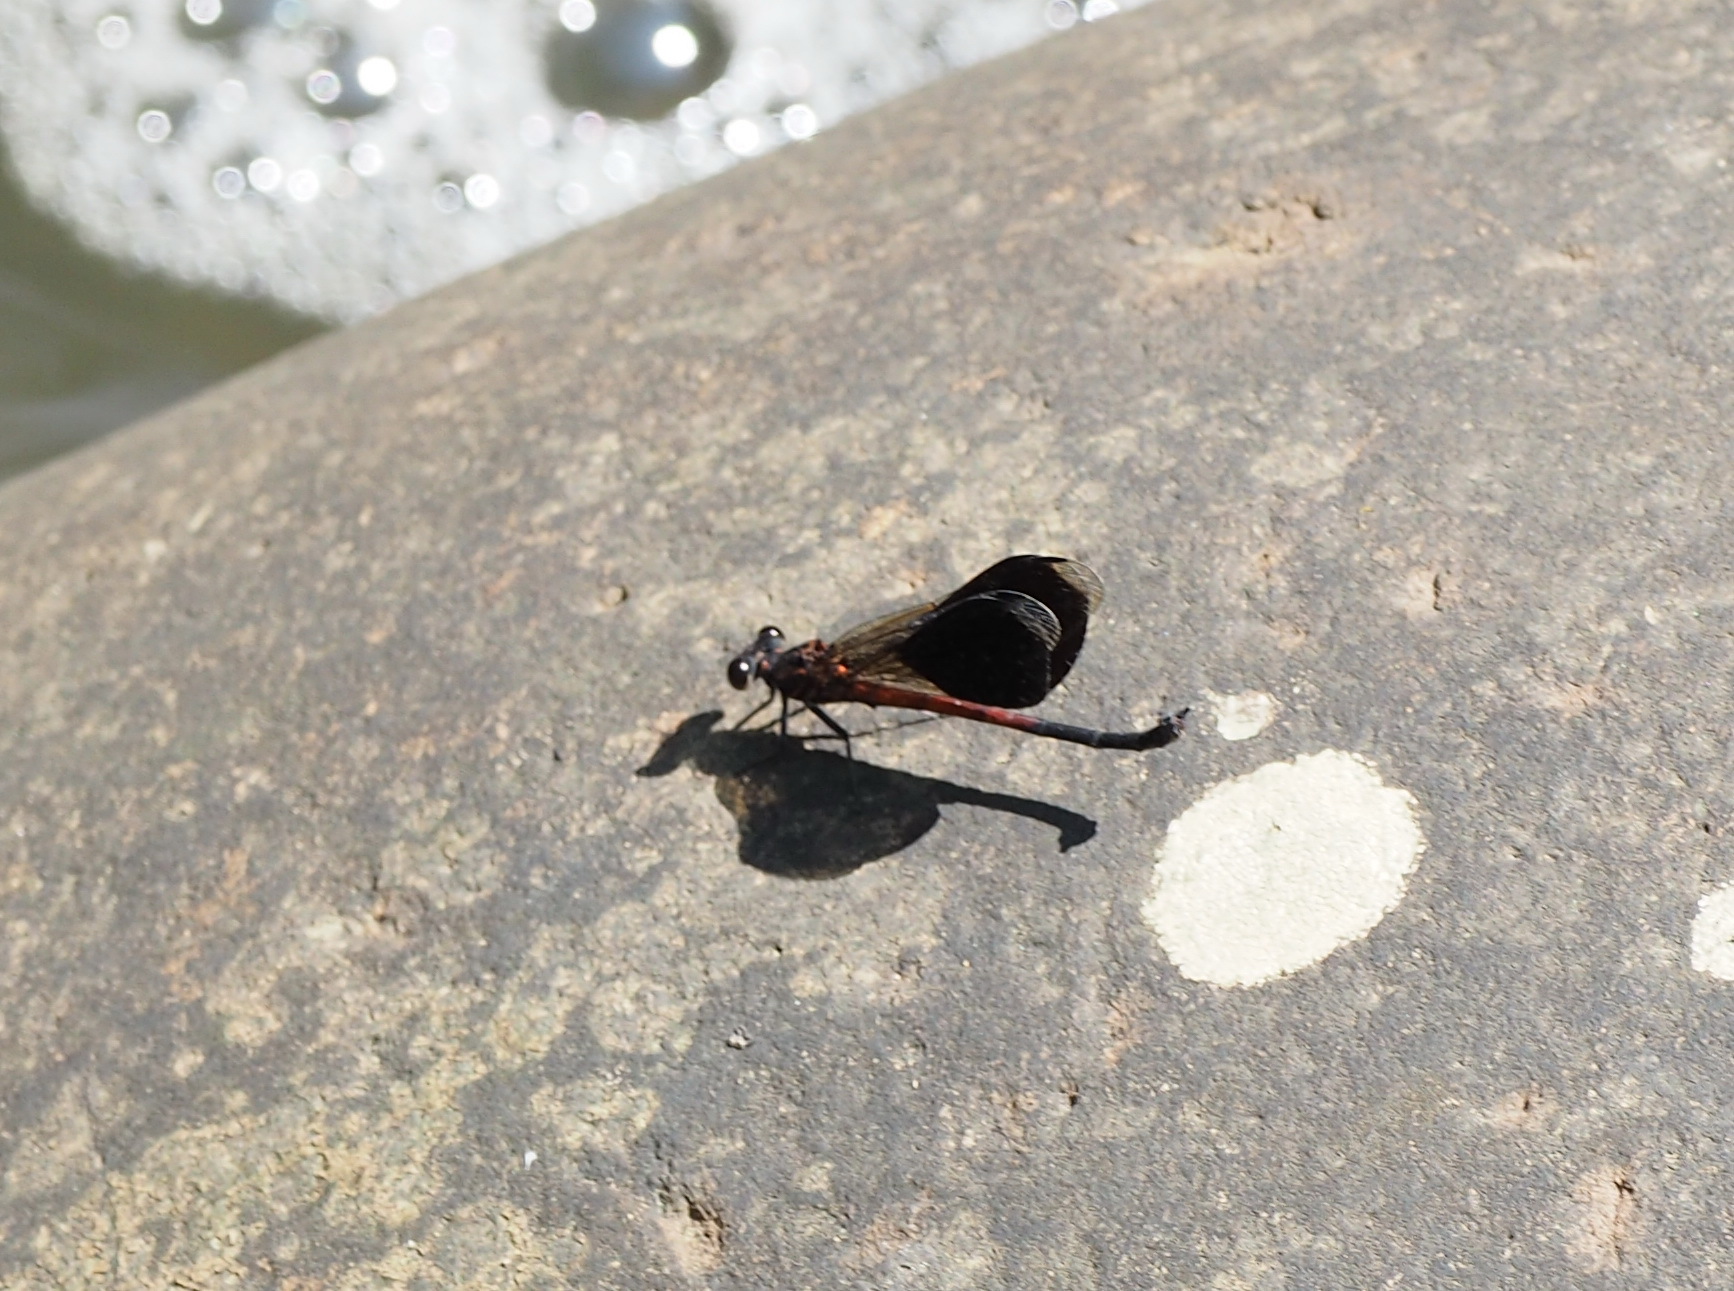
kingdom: Animalia
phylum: Arthropoda
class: Insecta
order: Odonata
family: Euphaeidae
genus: Euphaea
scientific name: Euphaea formosa
